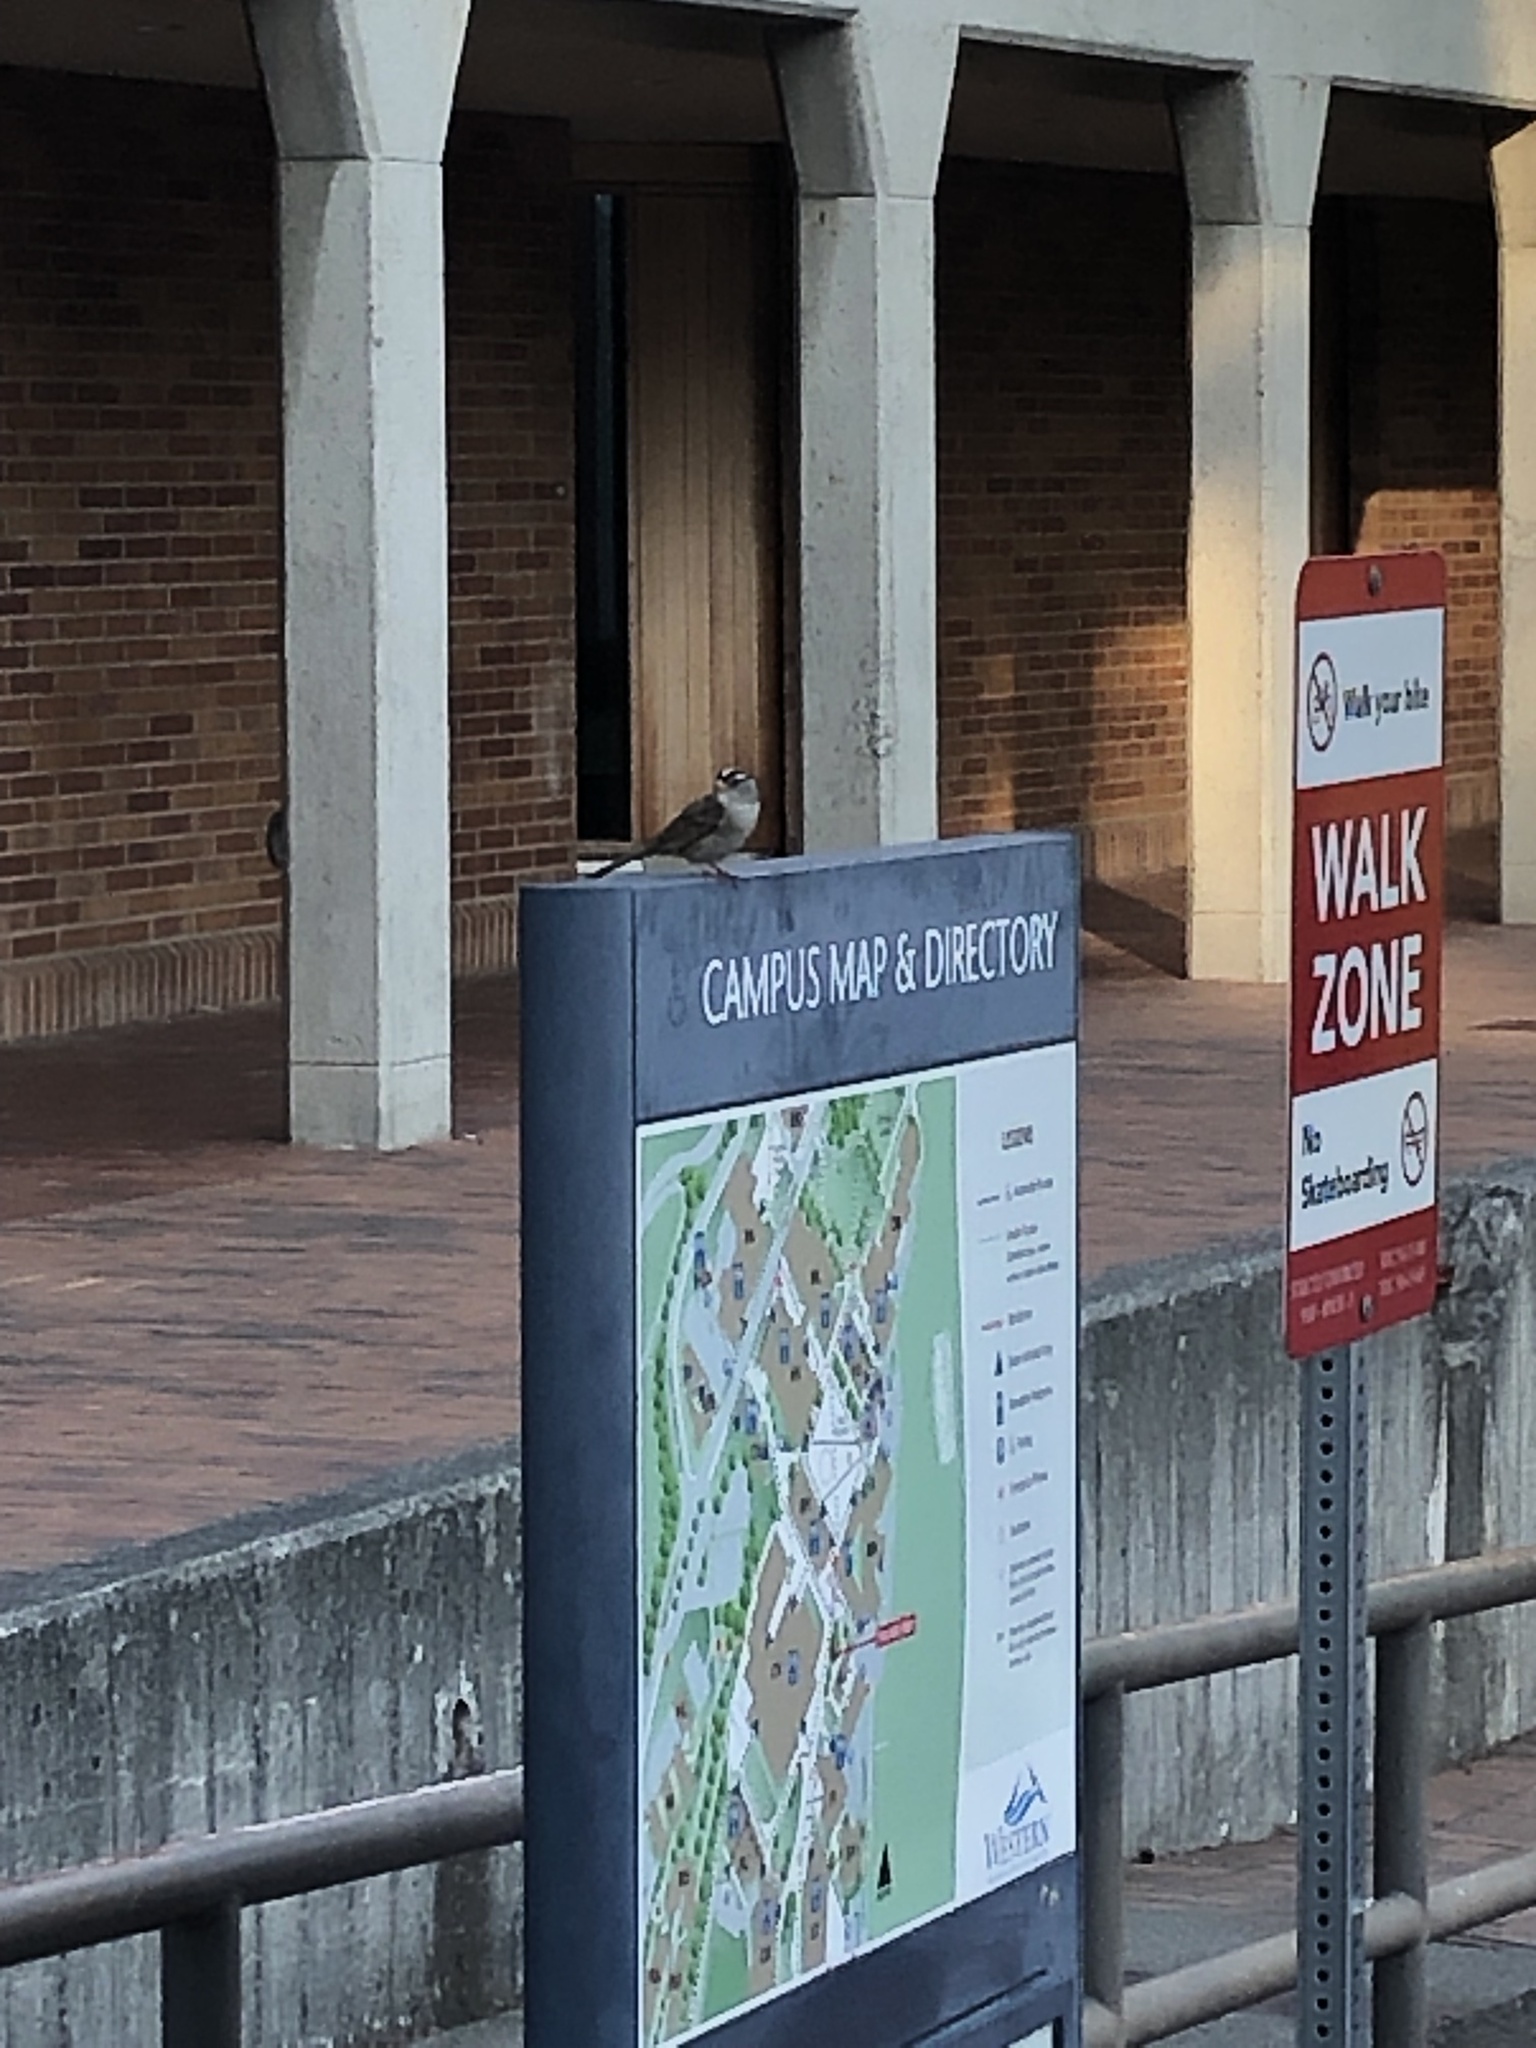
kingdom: Animalia
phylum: Chordata
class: Aves
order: Passeriformes
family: Passerellidae
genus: Zonotrichia
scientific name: Zonotrichia leucophrys
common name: White-crowned sparrow
